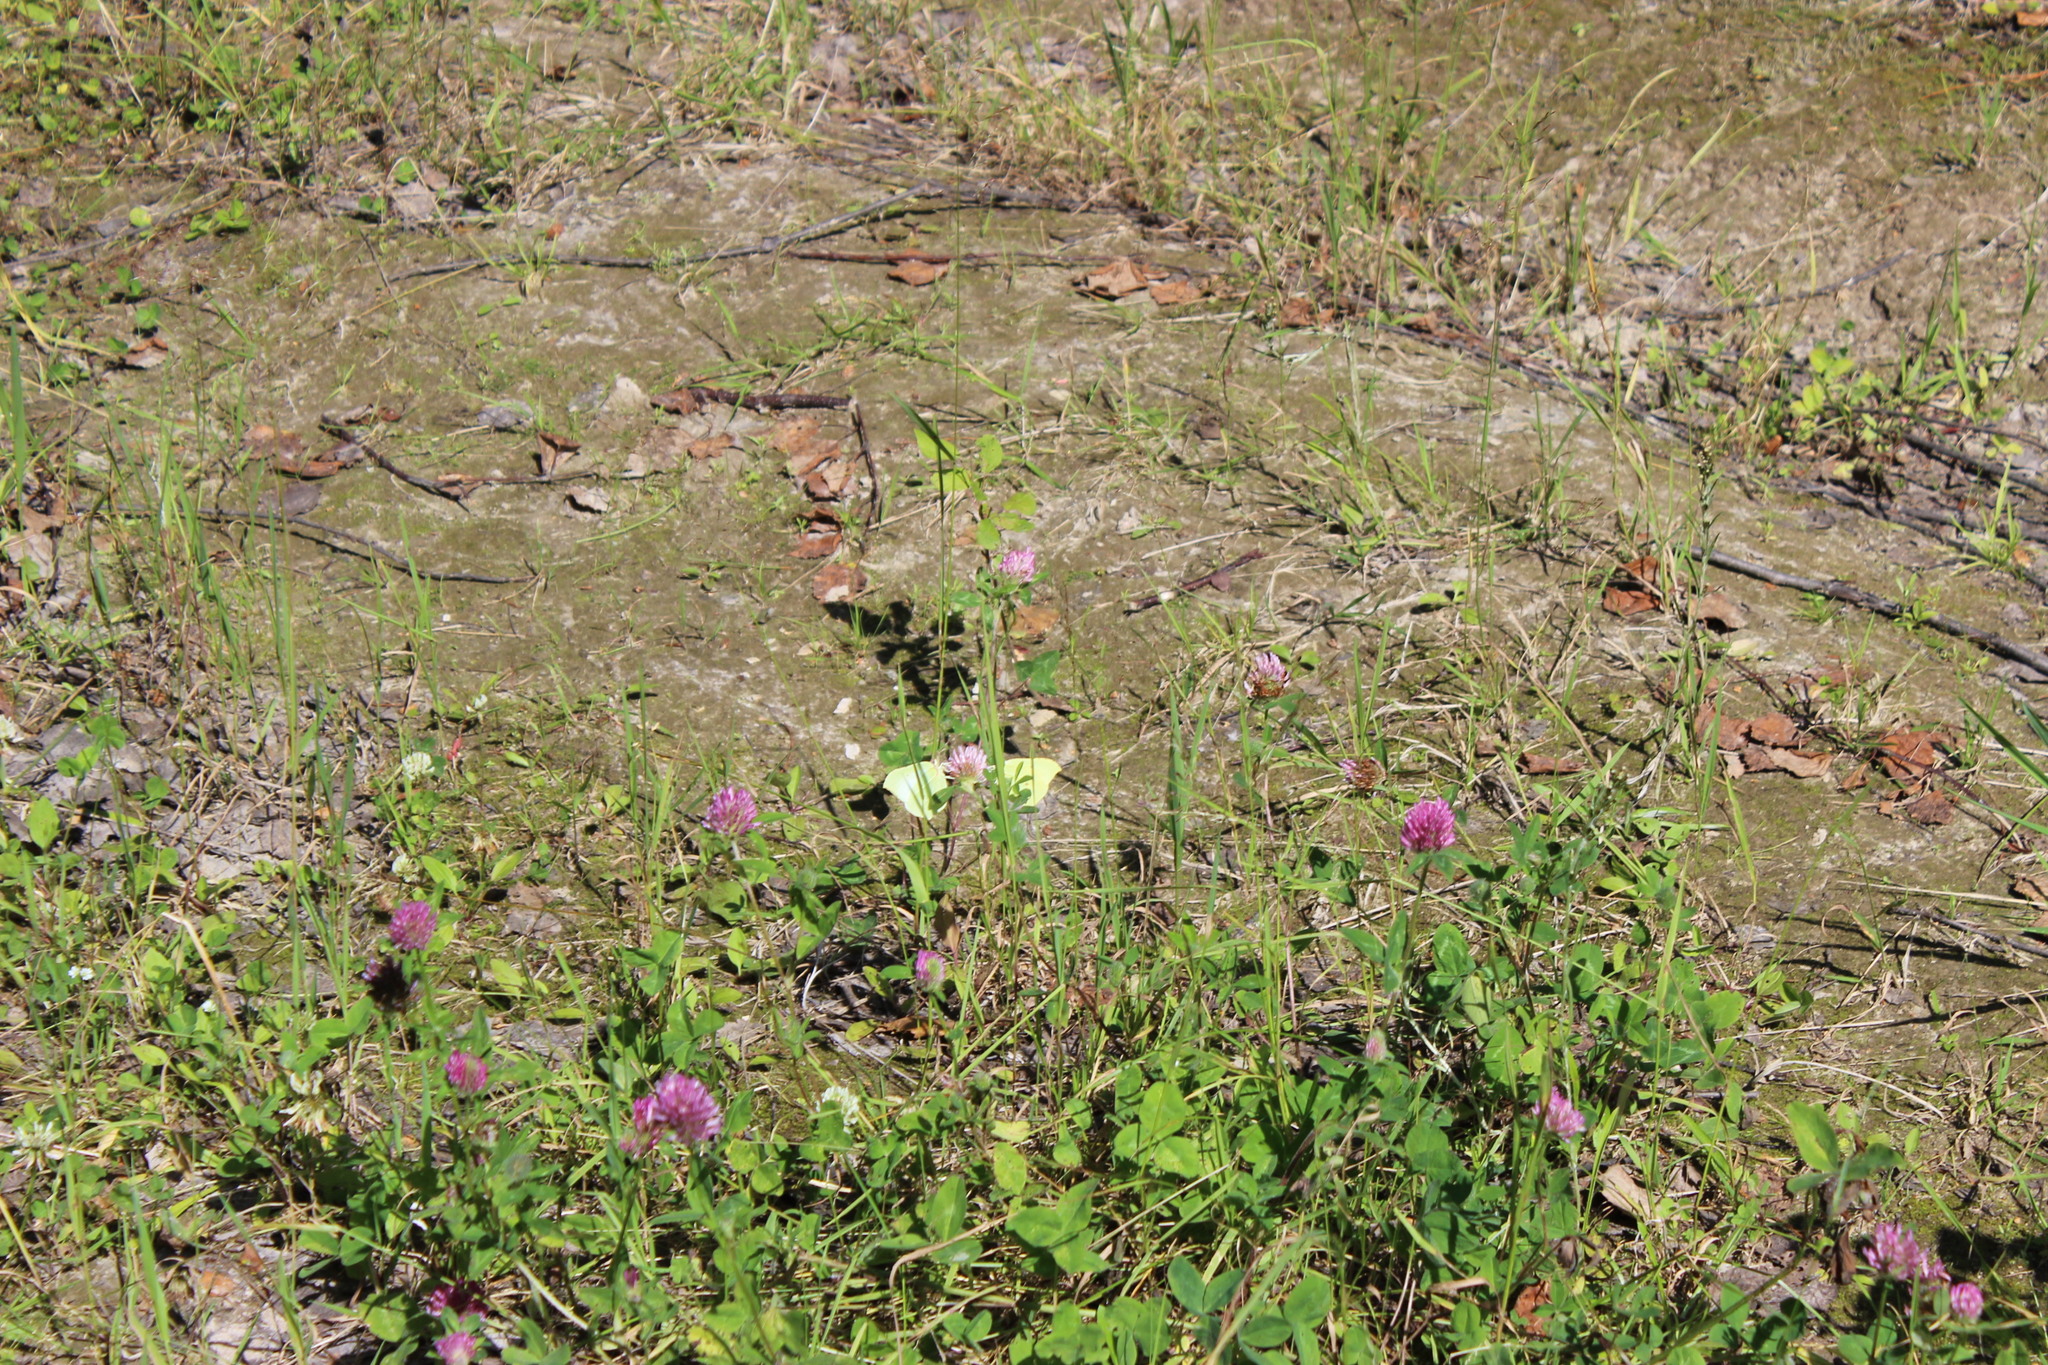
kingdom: Animalia
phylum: Arthropoda
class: Insecta
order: Lepidoptera
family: Pieridae
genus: Gonepteryx
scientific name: Gonepteryx rhamni
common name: Brimstone
